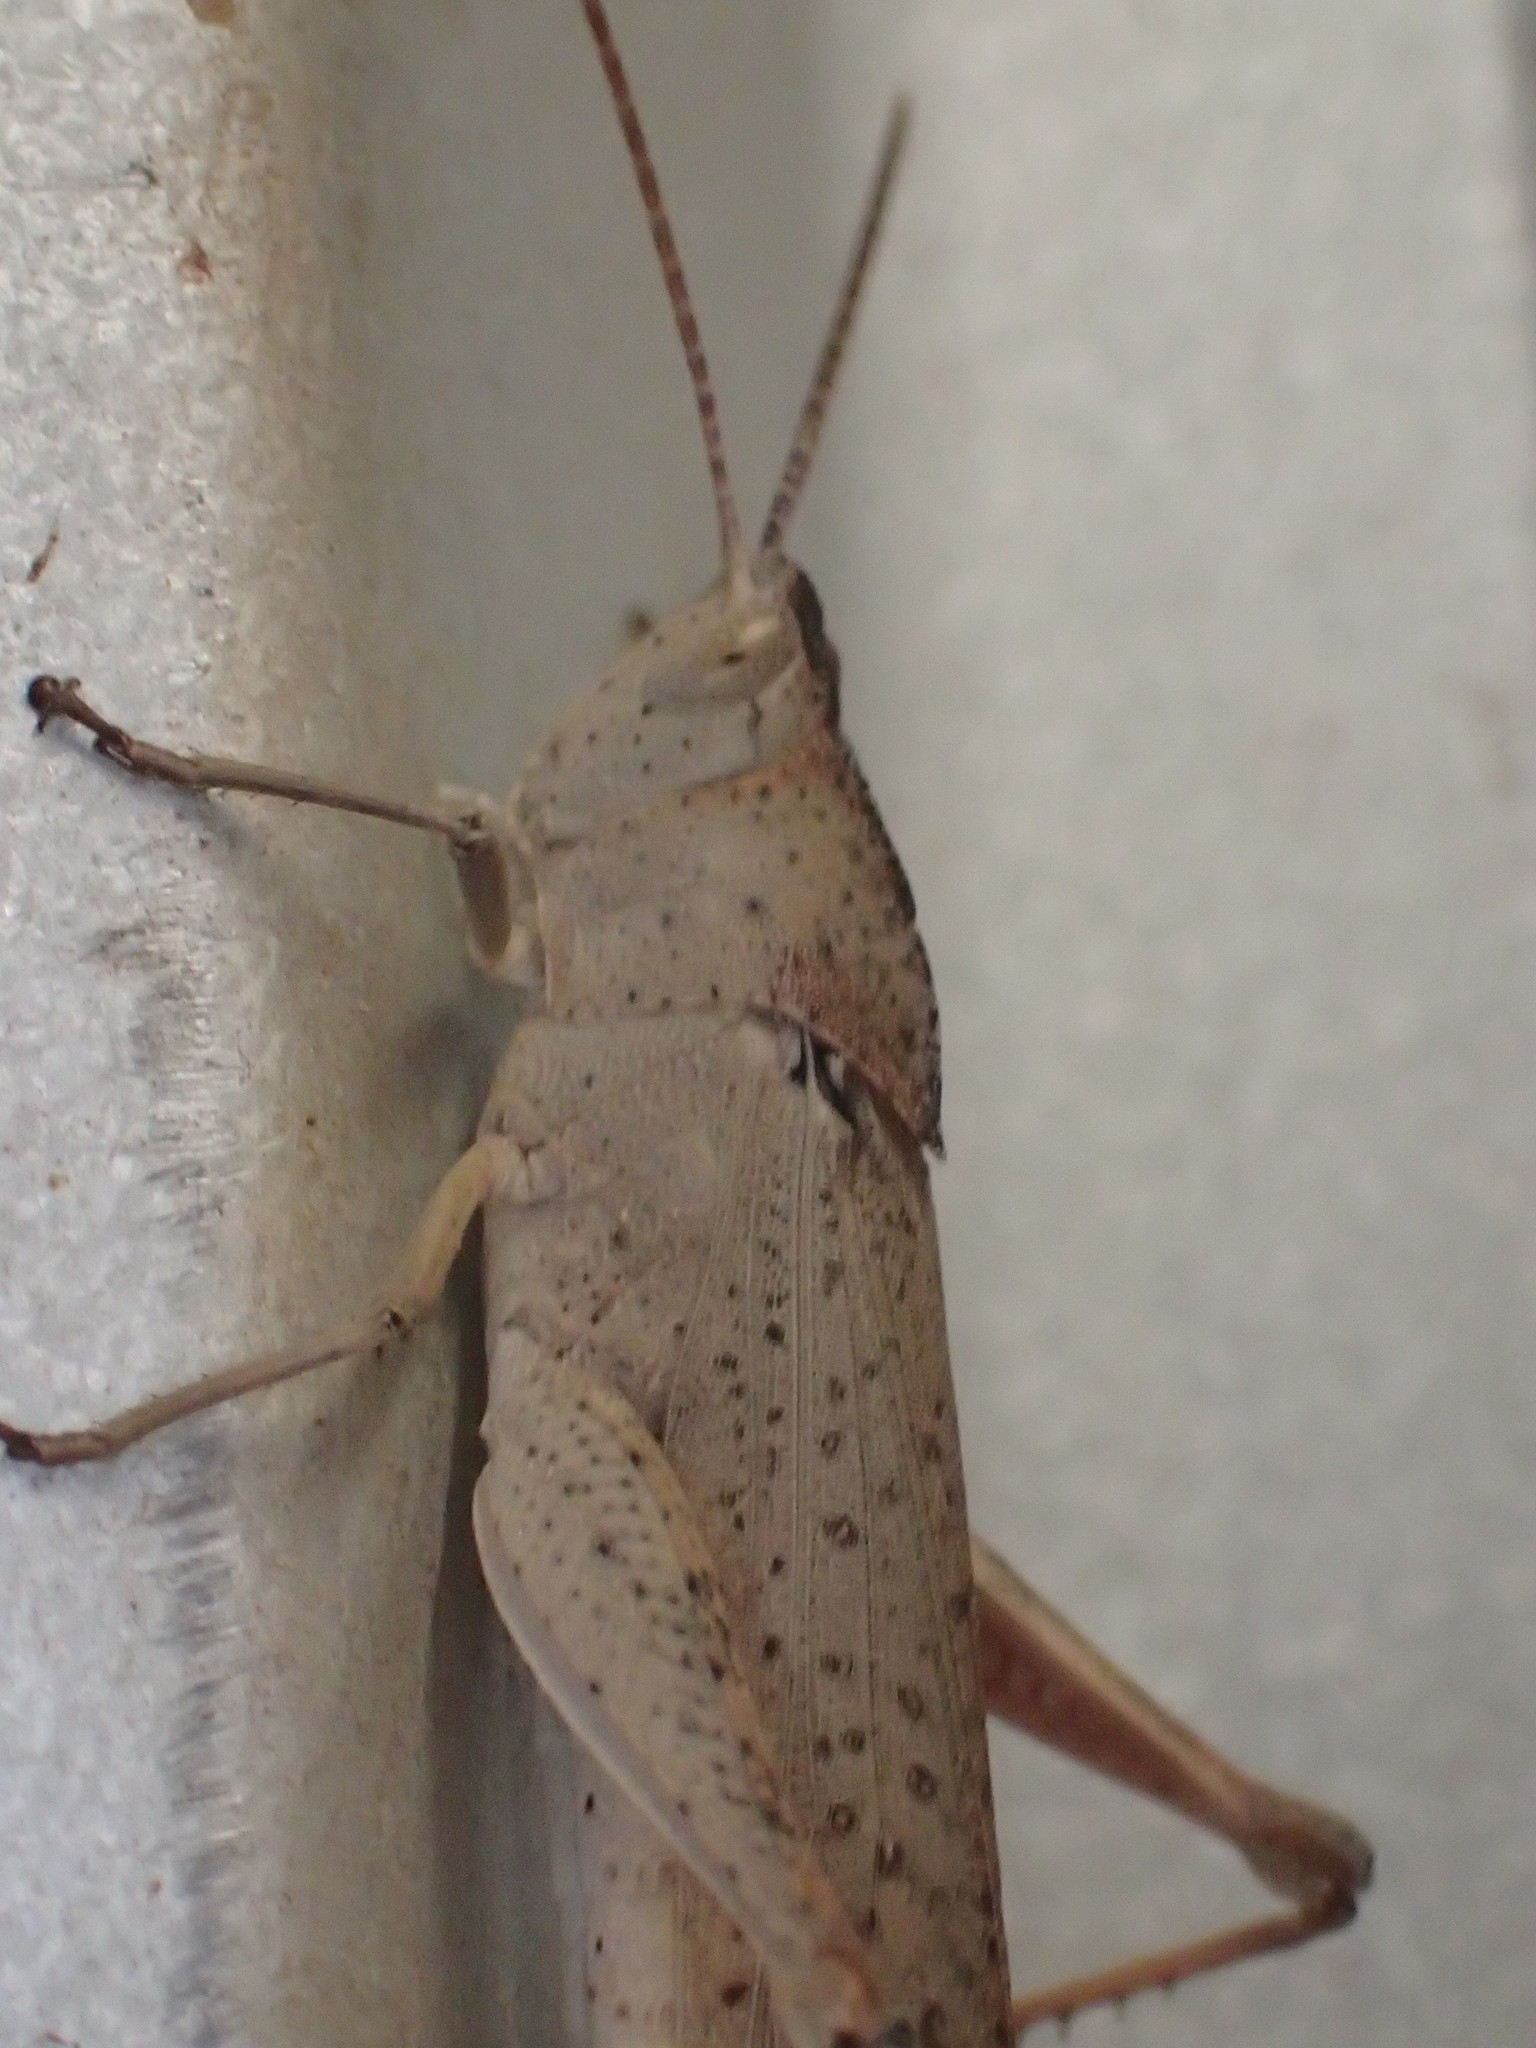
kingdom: Animalia
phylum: Arthropoda
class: Insecta
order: Orthoptera
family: Acrididae
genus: Goniaea
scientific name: Goniaea vocans
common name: Slender gumleaf grasshopper
